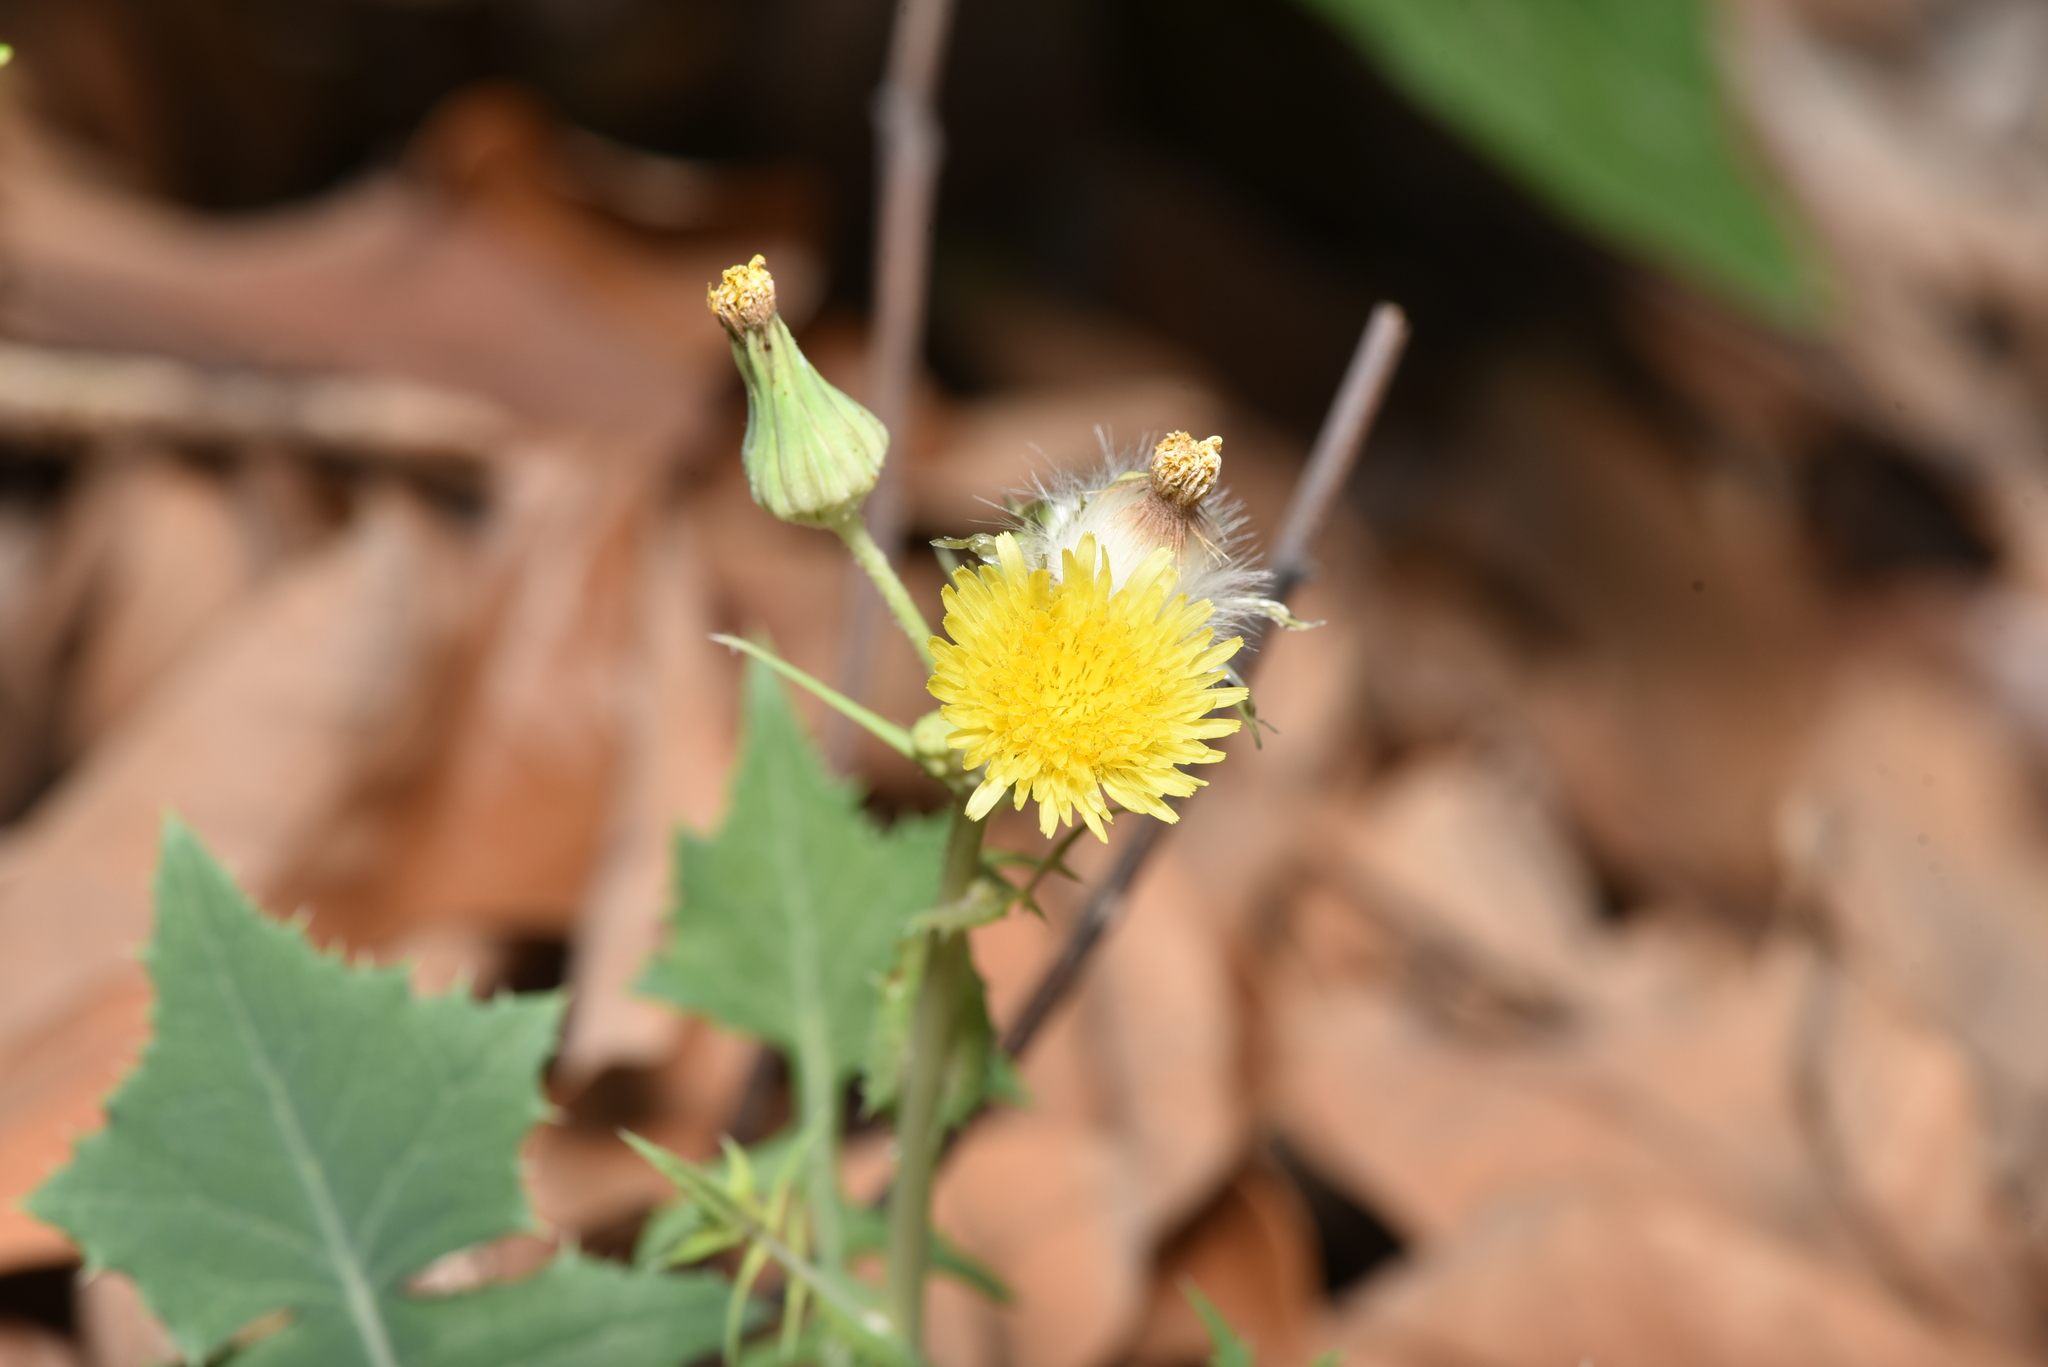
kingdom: Plantae
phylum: Tracheophyta
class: Magnoliopsida
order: Asterales
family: Asteraceae
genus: Sonchus
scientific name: Sonchus oleraceus
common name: Common sowthistle
